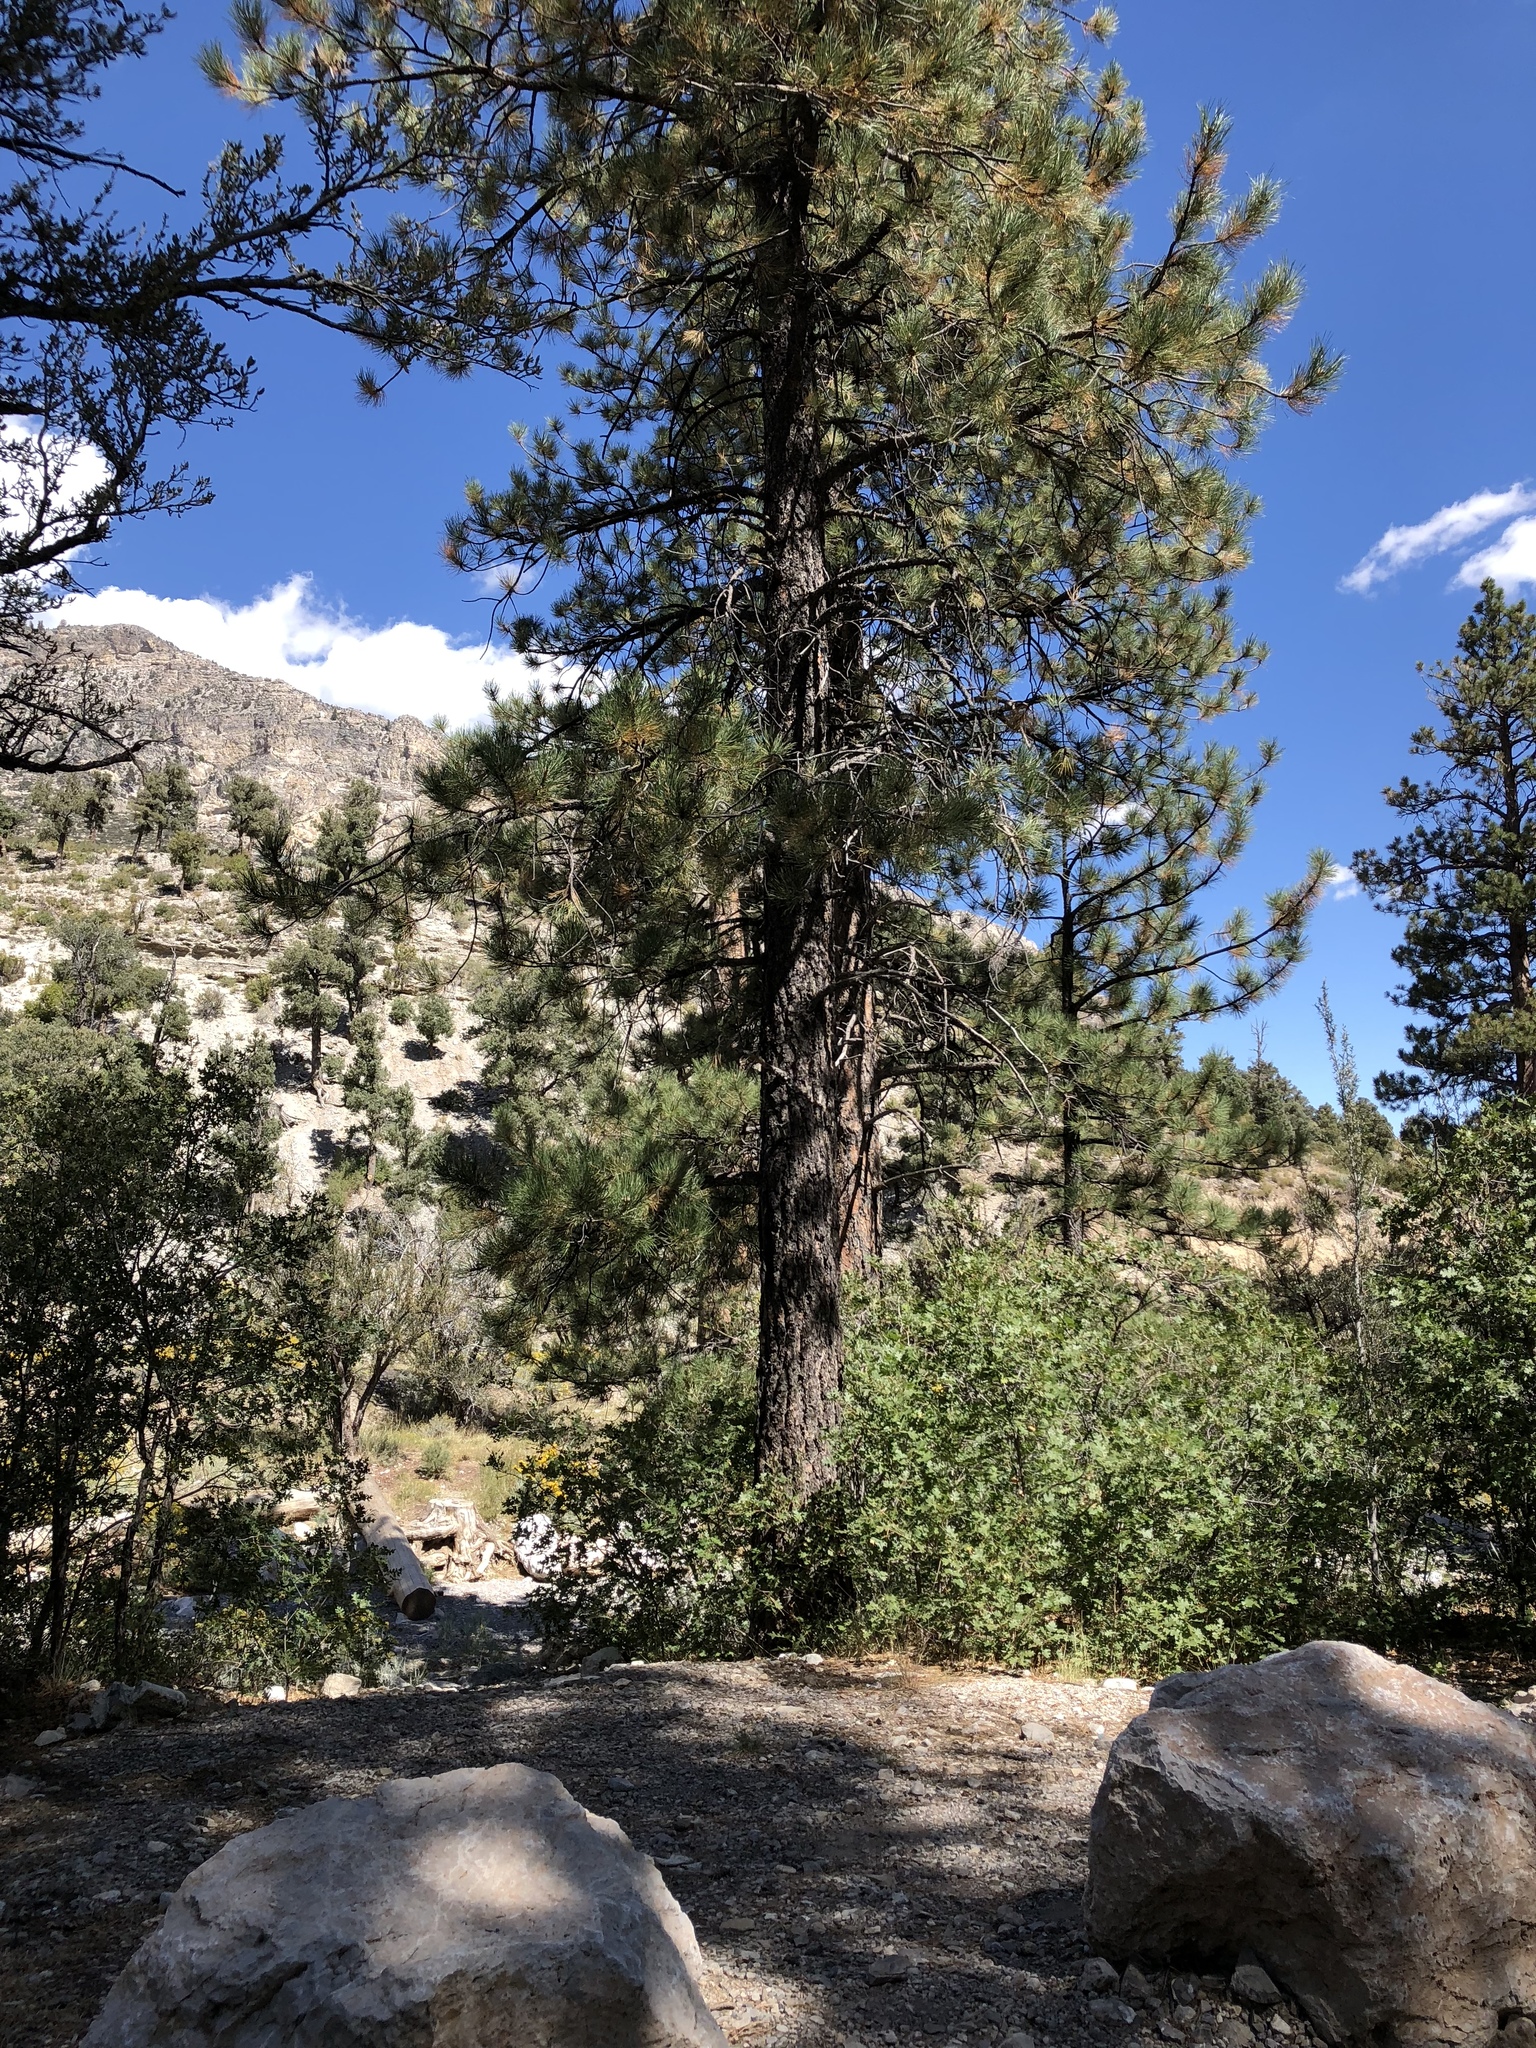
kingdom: Plantae
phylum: Tracheophyta
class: Pinopsida
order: Pinales
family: Pinaceae
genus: Pinus
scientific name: Pinus ponderosa
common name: Western yellow-pine
